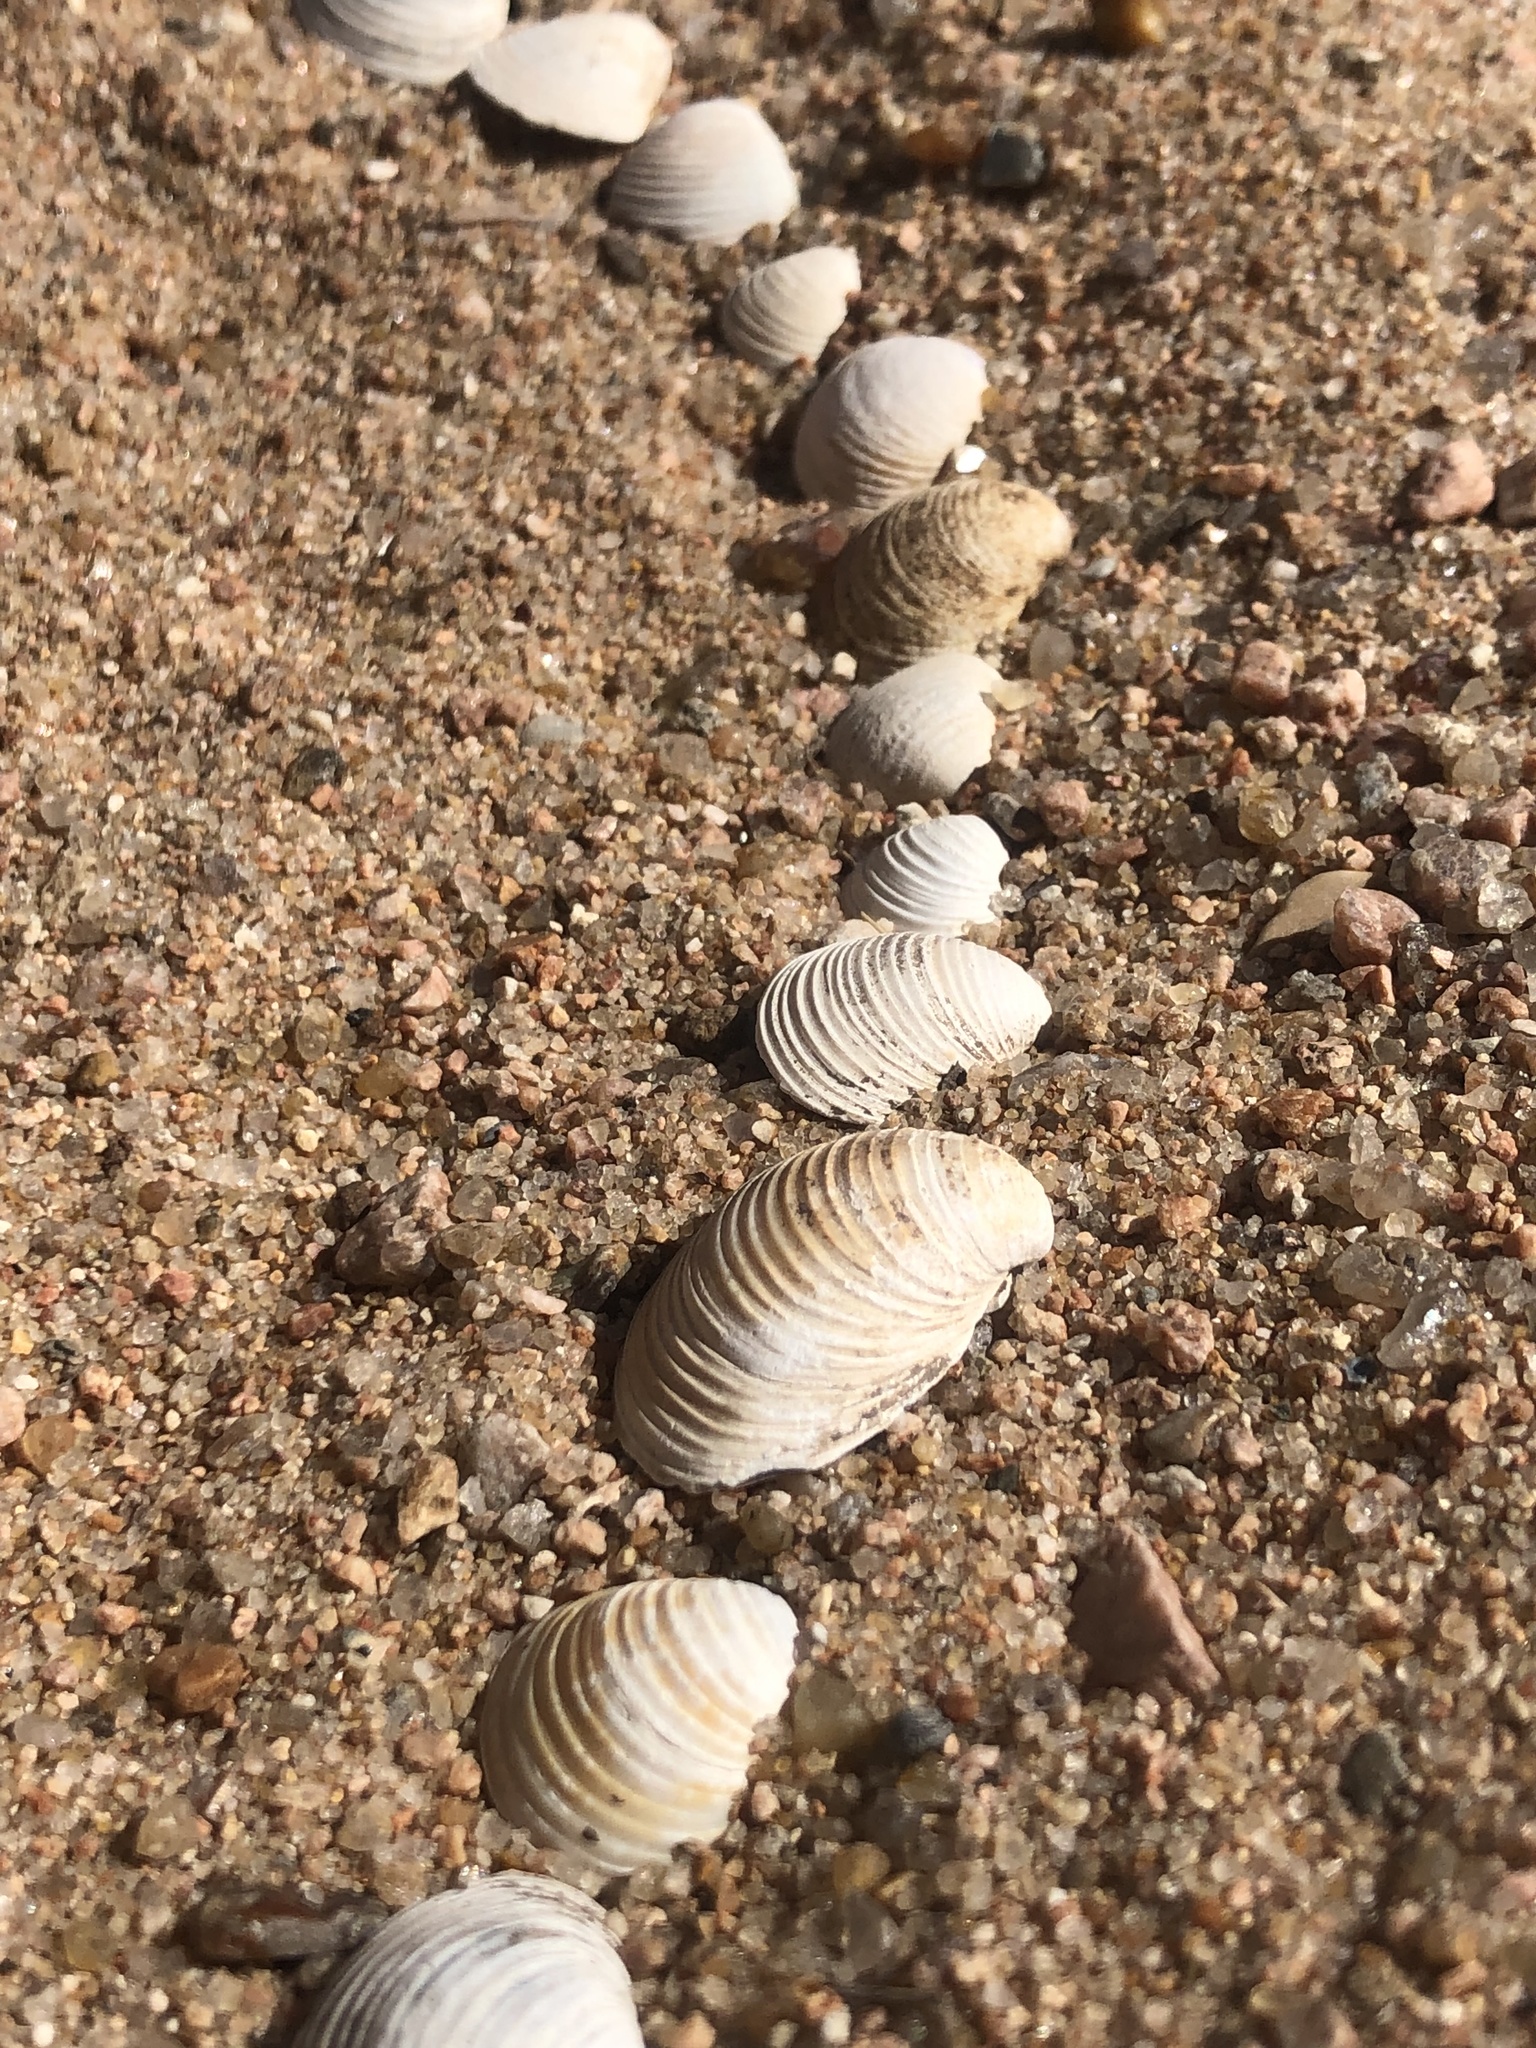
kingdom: Animalia
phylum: Mollusca
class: Bivalvia
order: Venerida
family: Cyrenidae
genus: Corbicula
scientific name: Corbicula fluminea
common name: Asian clam
